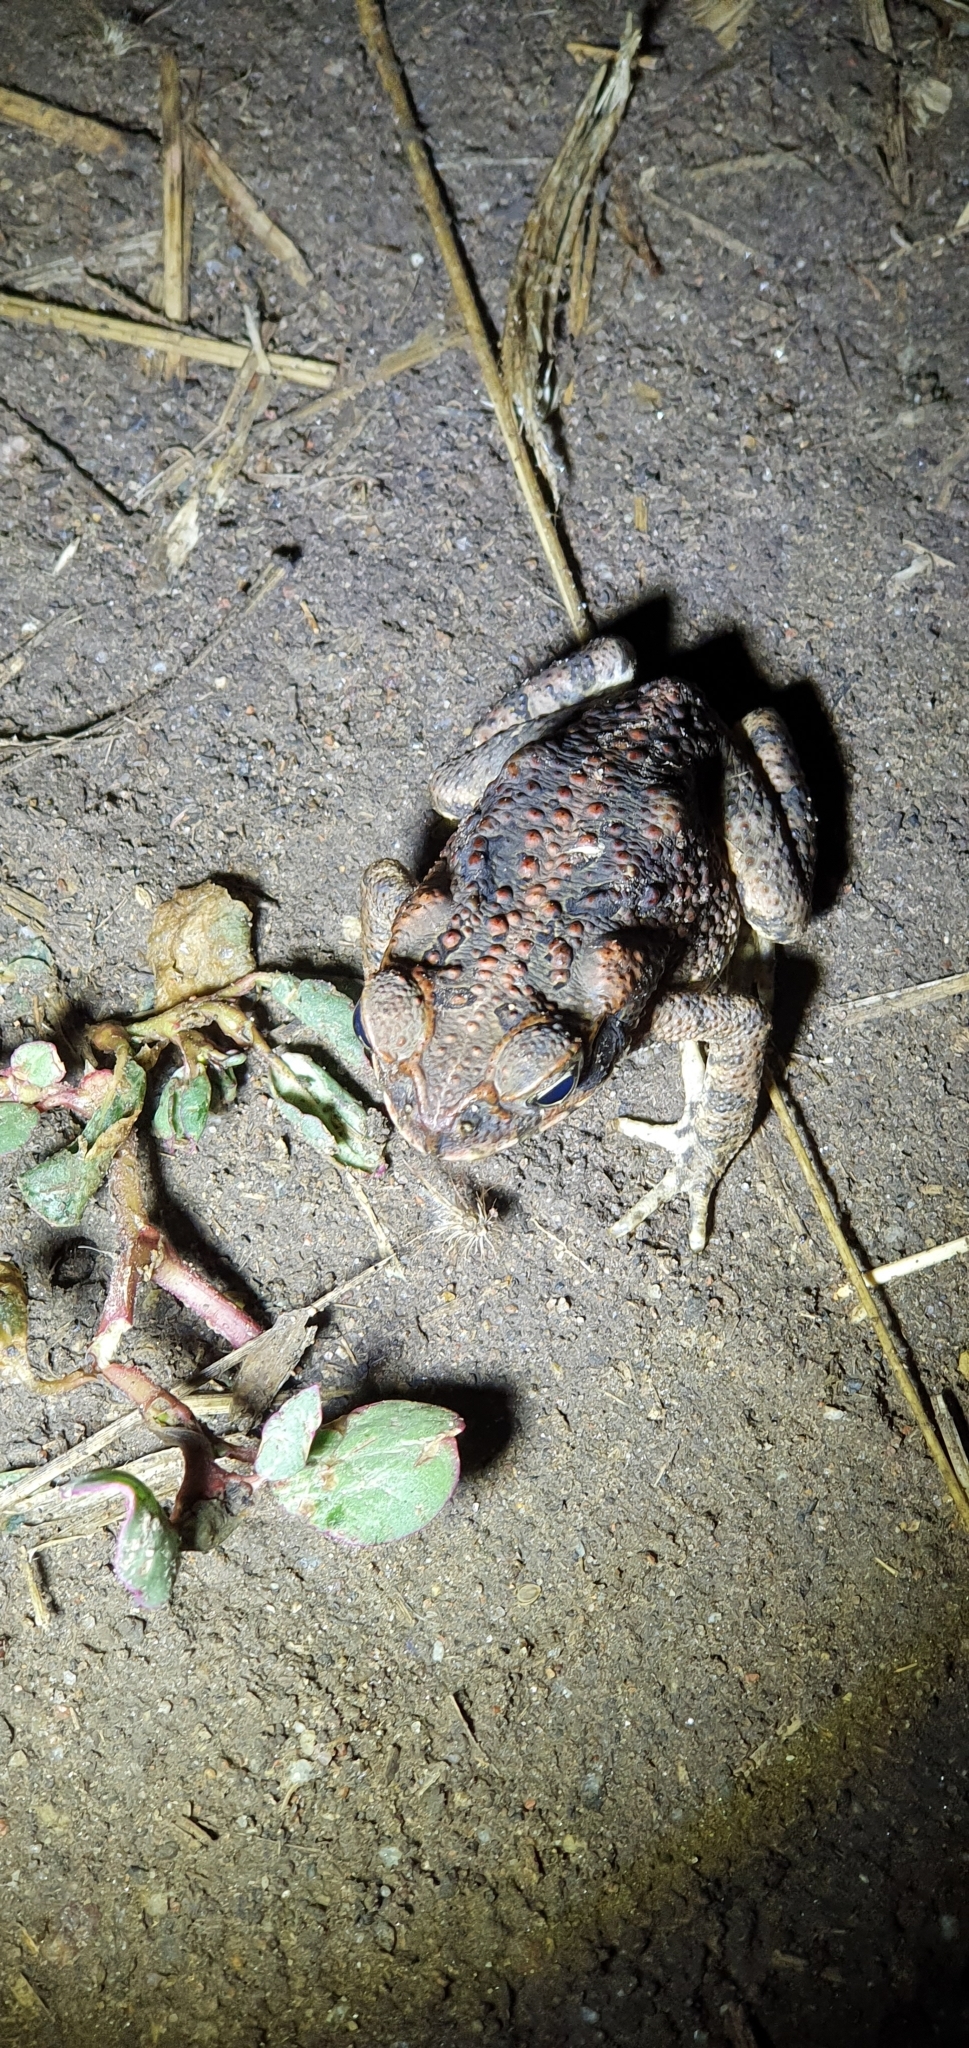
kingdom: Animalia
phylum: Chordata
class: Amphibia
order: Anura
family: Bufonidae
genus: Rhinella
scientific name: Rhinella marina
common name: Cane toad
